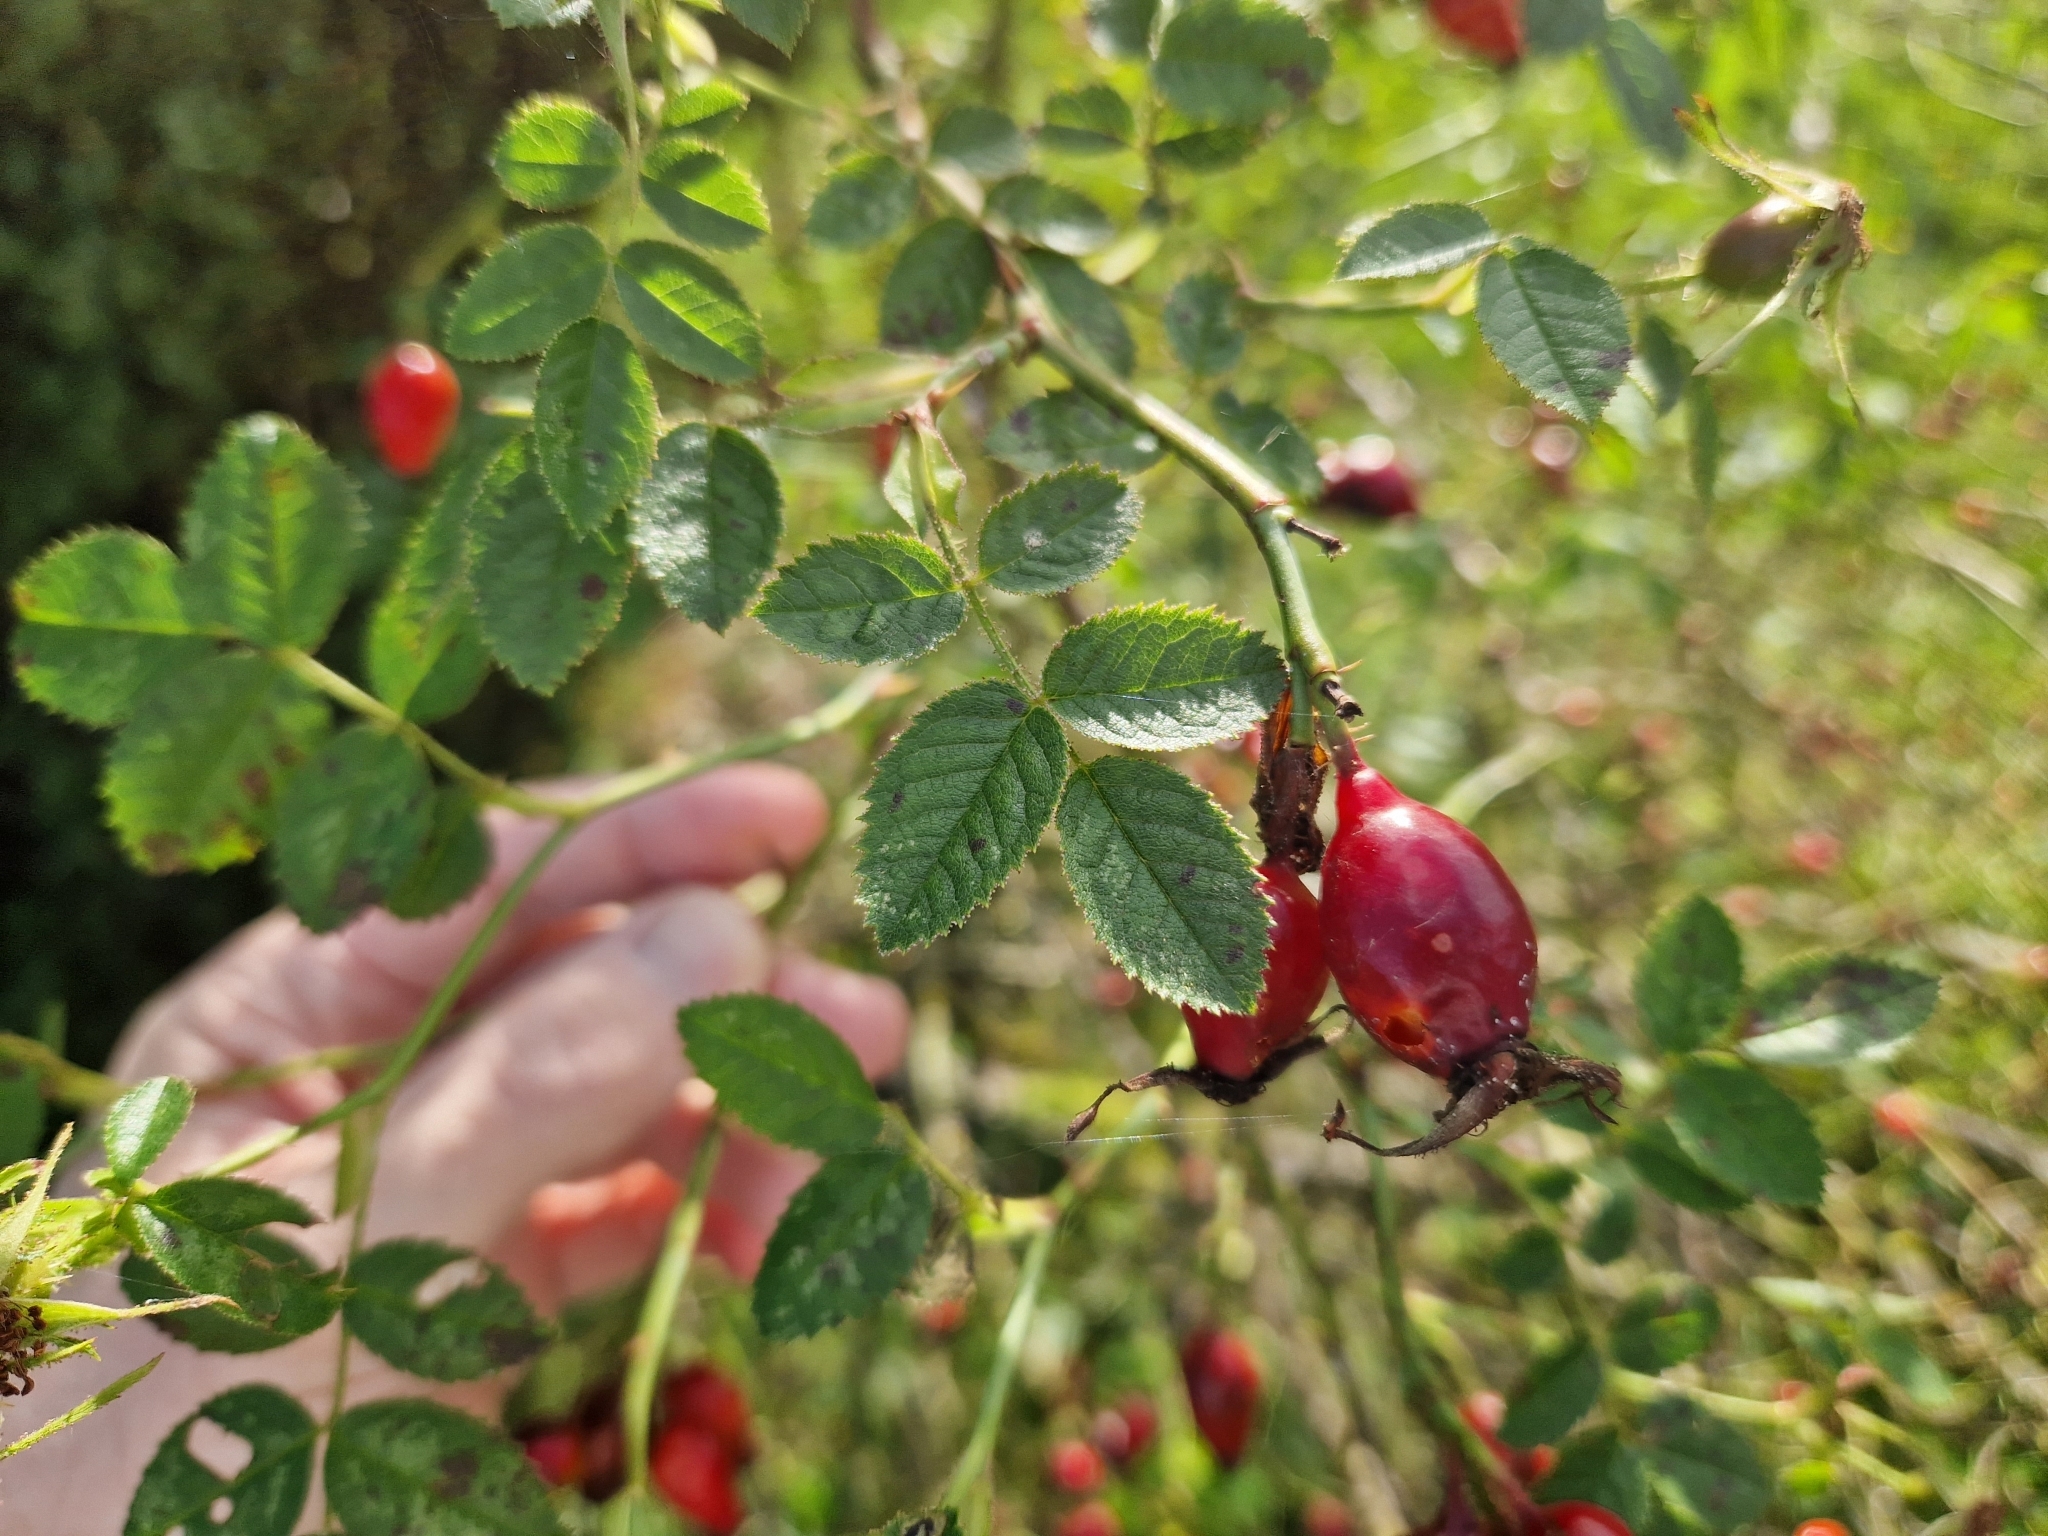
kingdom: Plantae
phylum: Tracheophyta
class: Magnoliopsida
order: Rosales
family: Rosaceae
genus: Rosa
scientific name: Rosa rubiginosa
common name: Sweet-briar
